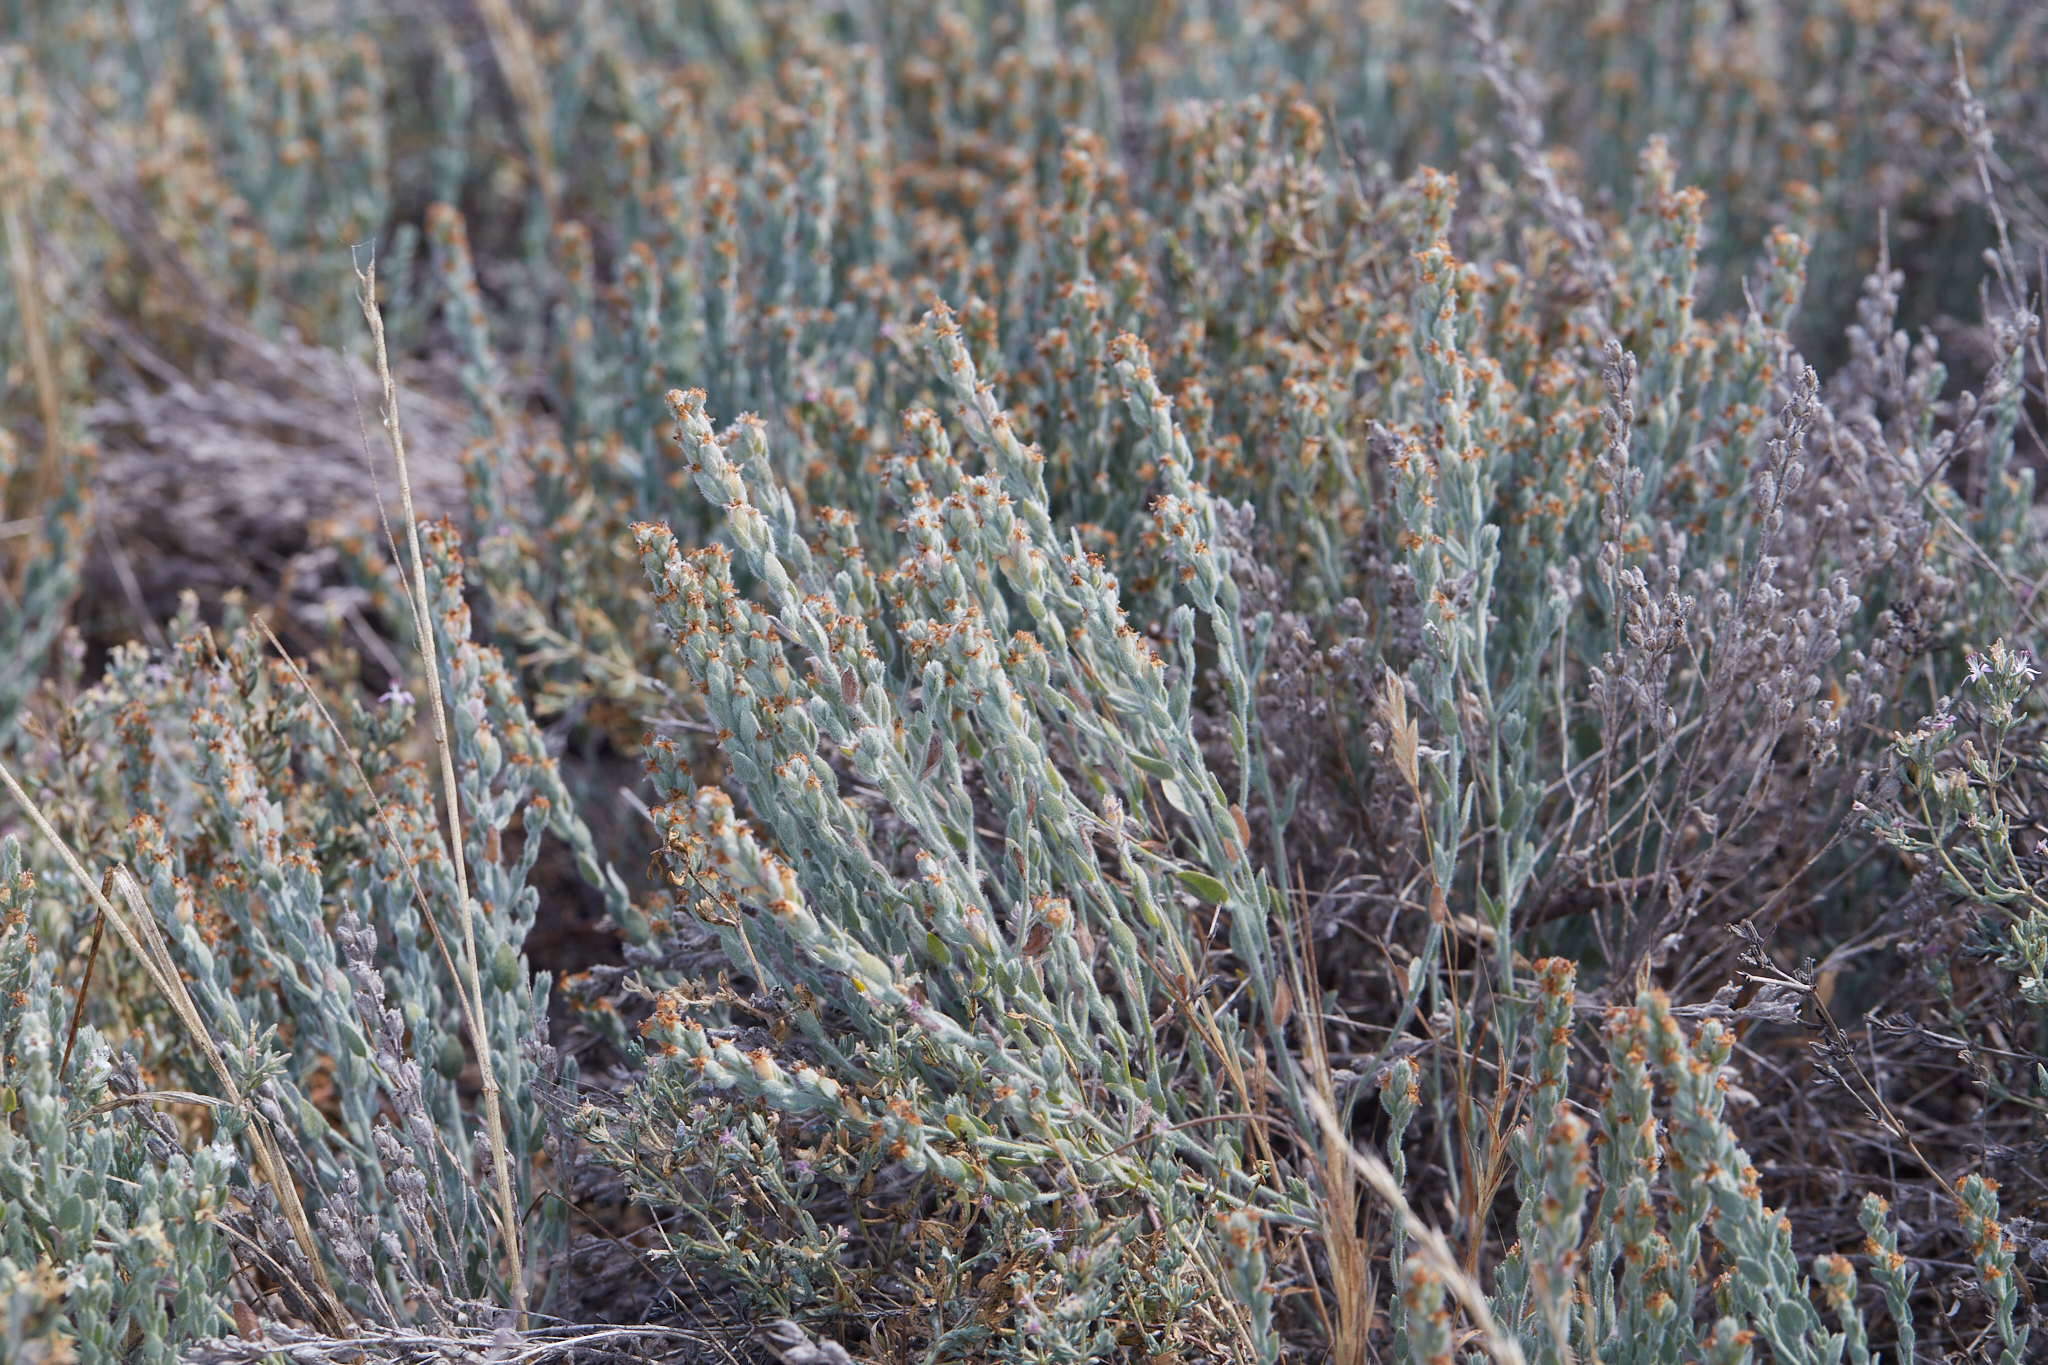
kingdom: Plantae
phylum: Tracheophyta
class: Magnoliopsida
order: Solanales
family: Convolvulaceae
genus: Cressa
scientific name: Cressa truxillensis
